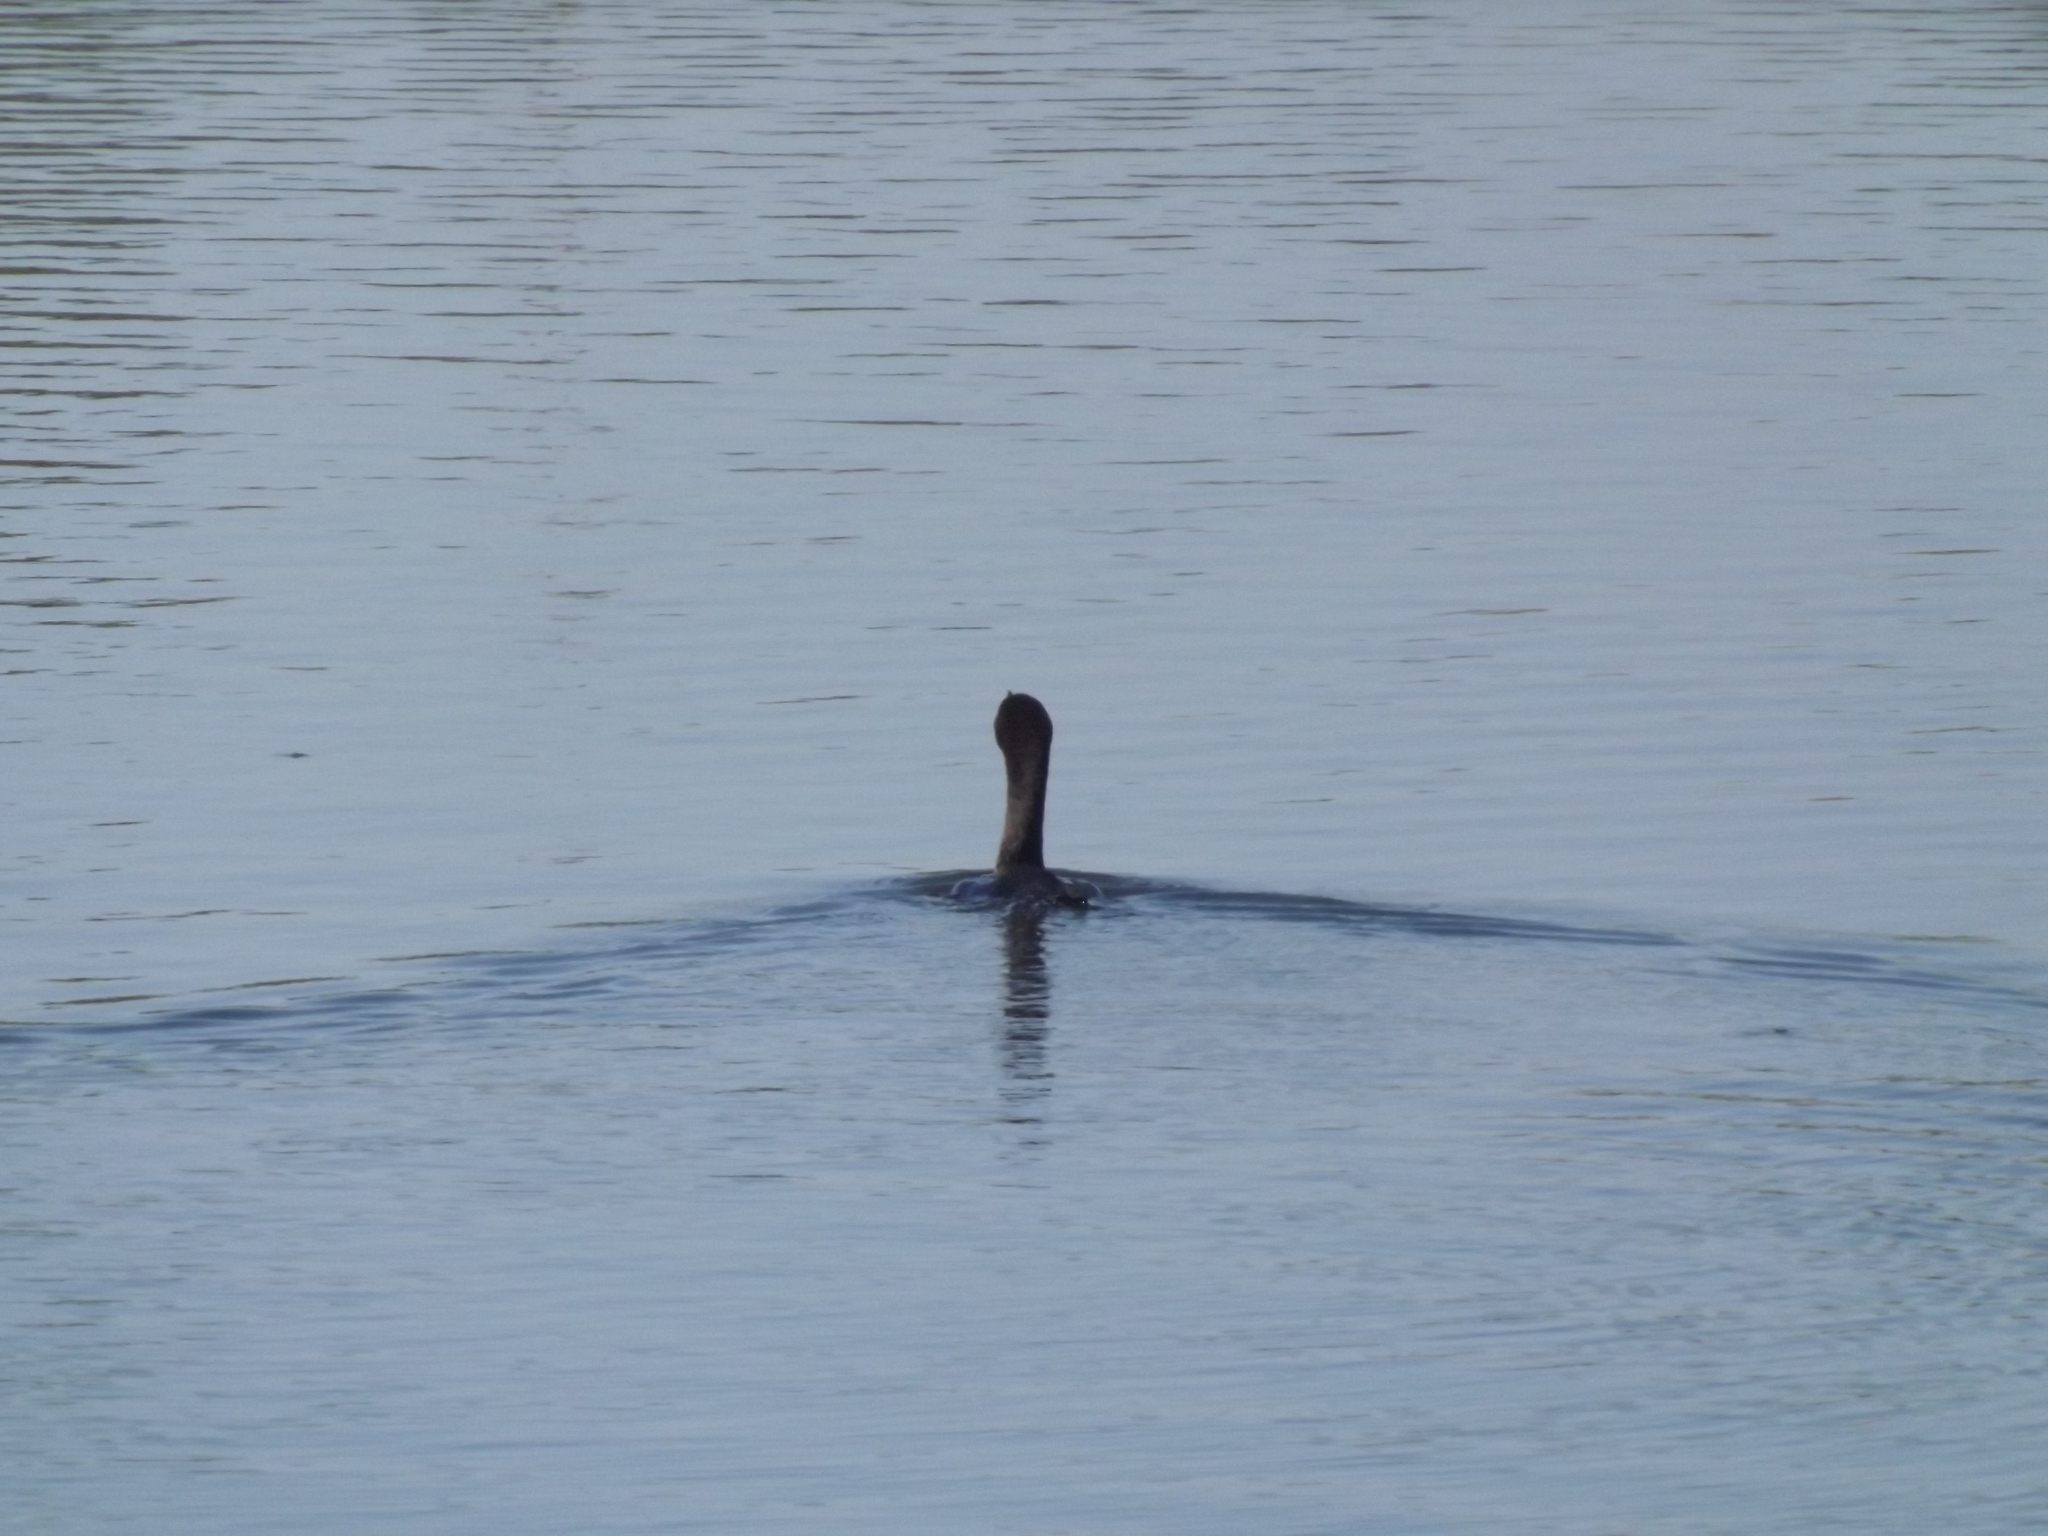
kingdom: Animalia
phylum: Chordata
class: Aves
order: Suliformes
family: Phalacrocoracidae
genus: Phalacrocorax
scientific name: Phalacrocorax auritus
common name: Double-crested cormorant
